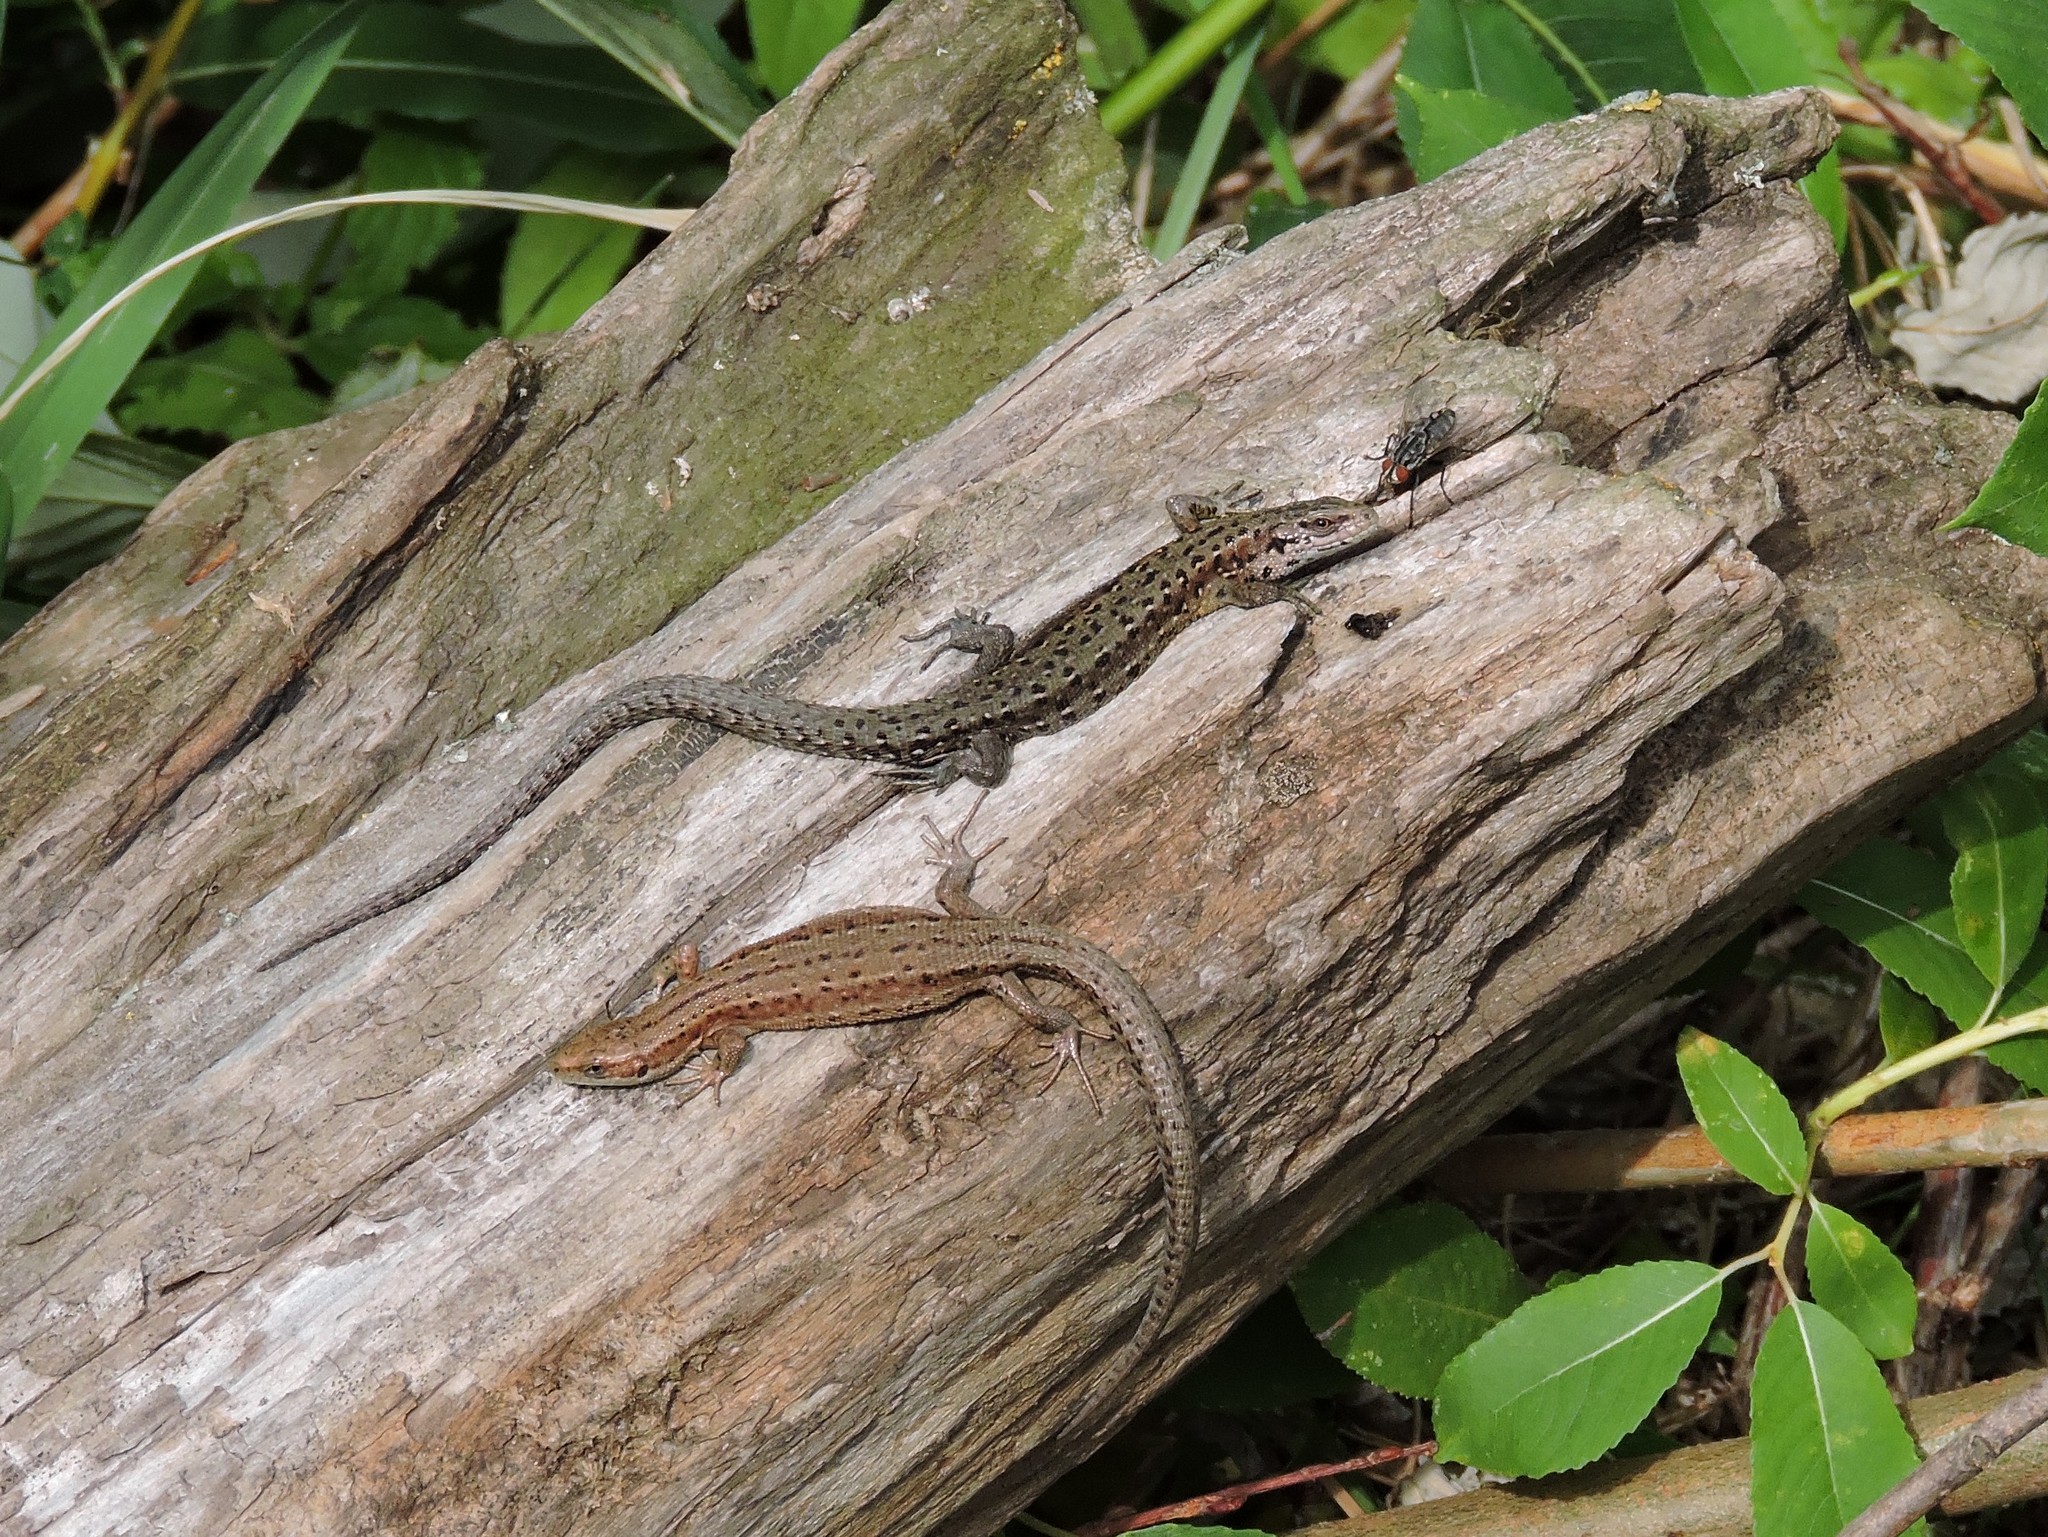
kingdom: Animalia
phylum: Chordata
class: Squamata
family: Lacertidae
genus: Zootoca
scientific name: Zootoca vivipara
